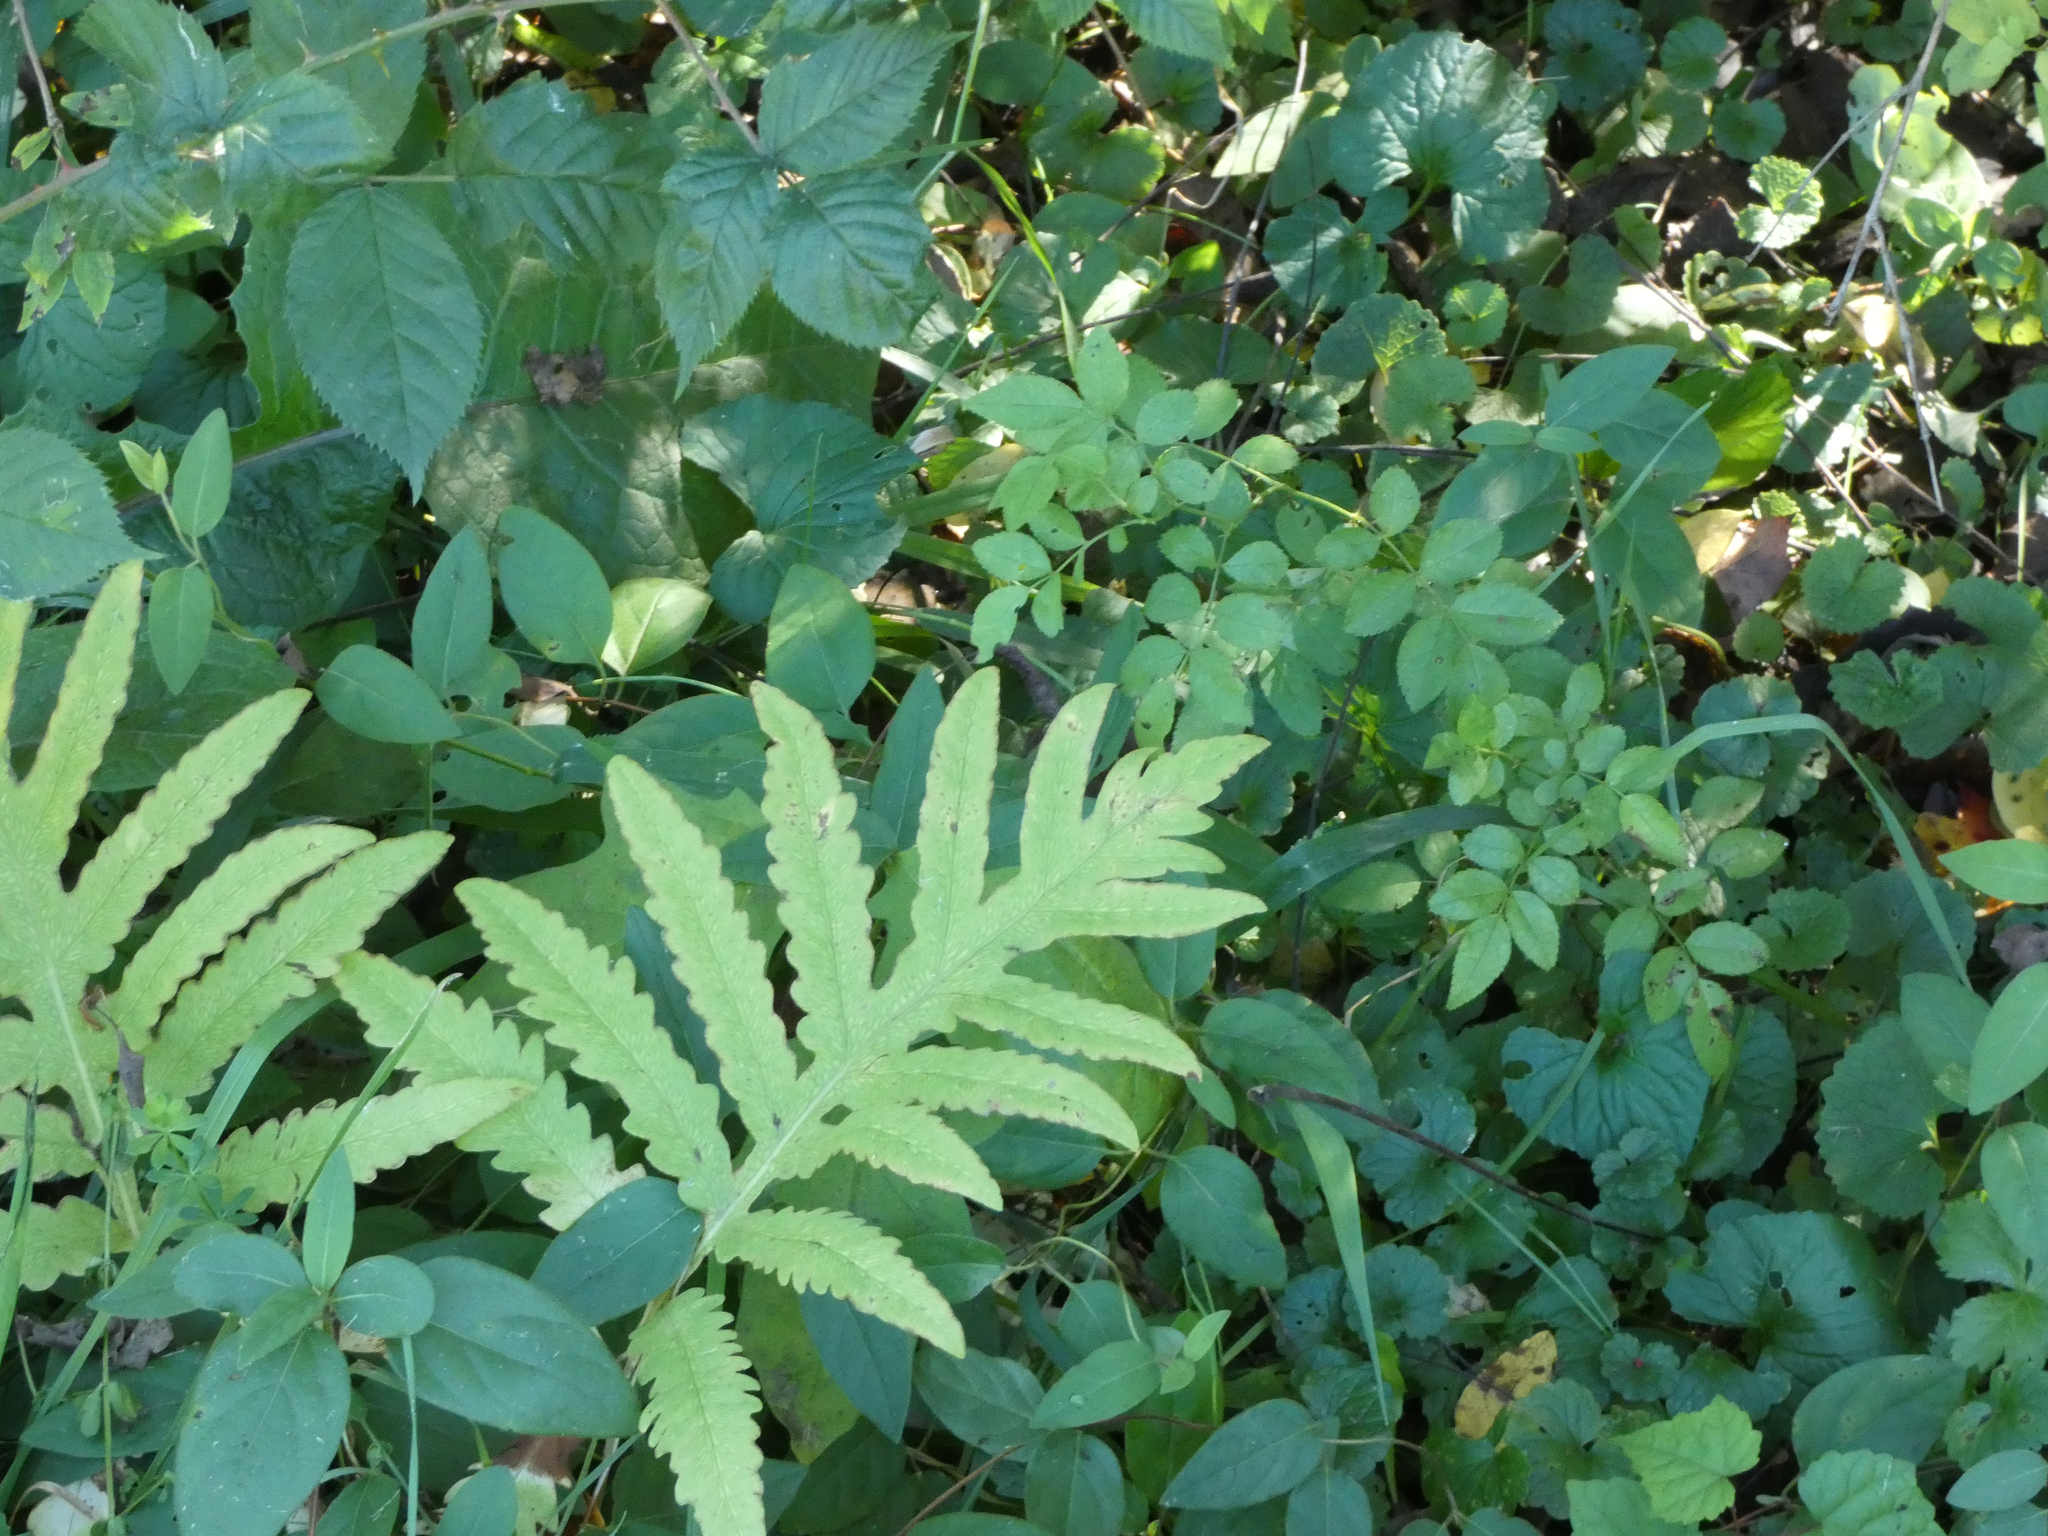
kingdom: Plantae
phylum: Tracheophyta
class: Polypodiopsida
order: Polypodiales
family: Onocleaceae
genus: Onoclea
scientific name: Onoclea sensibilis
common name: Sensitive fern
